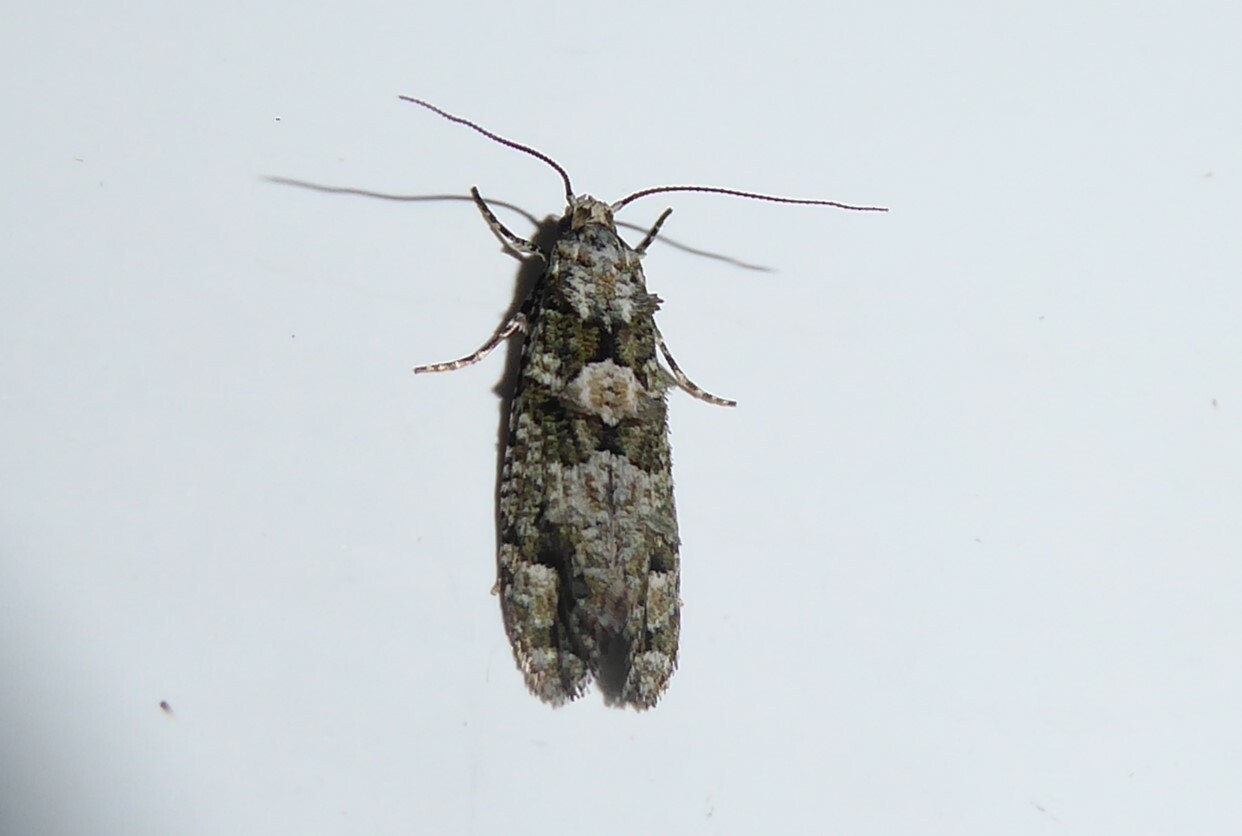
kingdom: Animalia
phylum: Arthropoda
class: Insecta
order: Lepidoptera
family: Tineidae
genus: Lysiphragma
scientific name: Lysiphragma howesii
